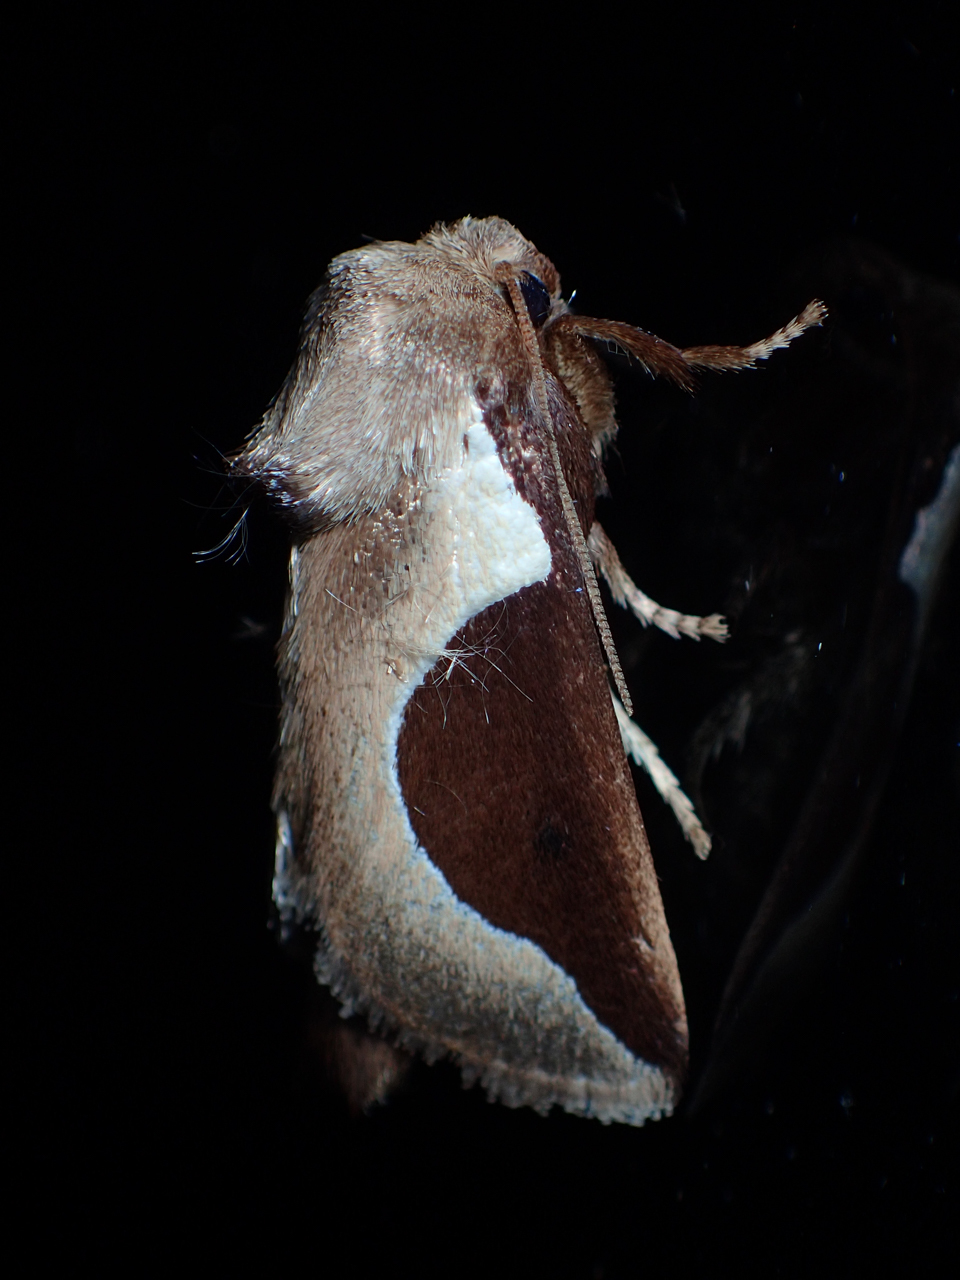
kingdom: Animalia
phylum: Arthropoda
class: Insecta
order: Lepidoptera
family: Limacodidae
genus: Prolimacodes
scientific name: Prolimacodes badia
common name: Skiff moth
